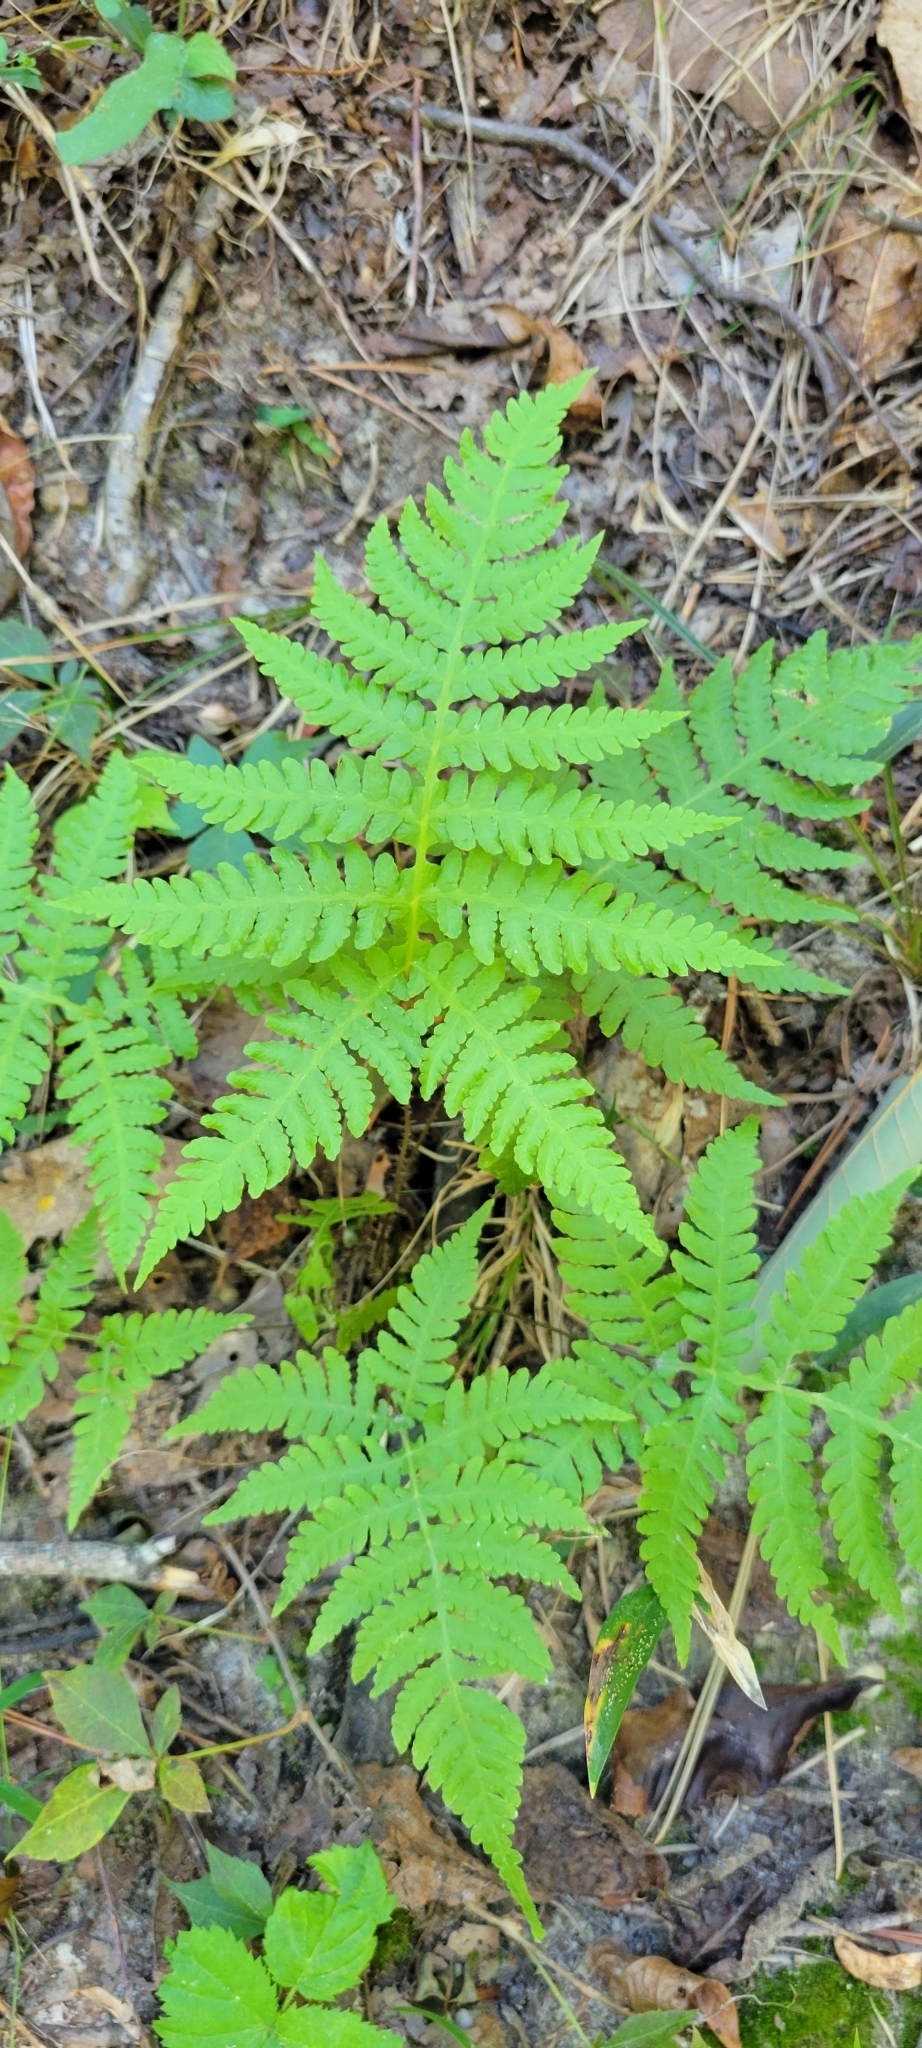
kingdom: Plantae
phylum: Tracheophyta
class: Polypodiopsida
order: Polypodiales
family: Thelypteridaceae
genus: Phegopteris
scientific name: Phegopteris hexagonoptera
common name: Broad beech fern
